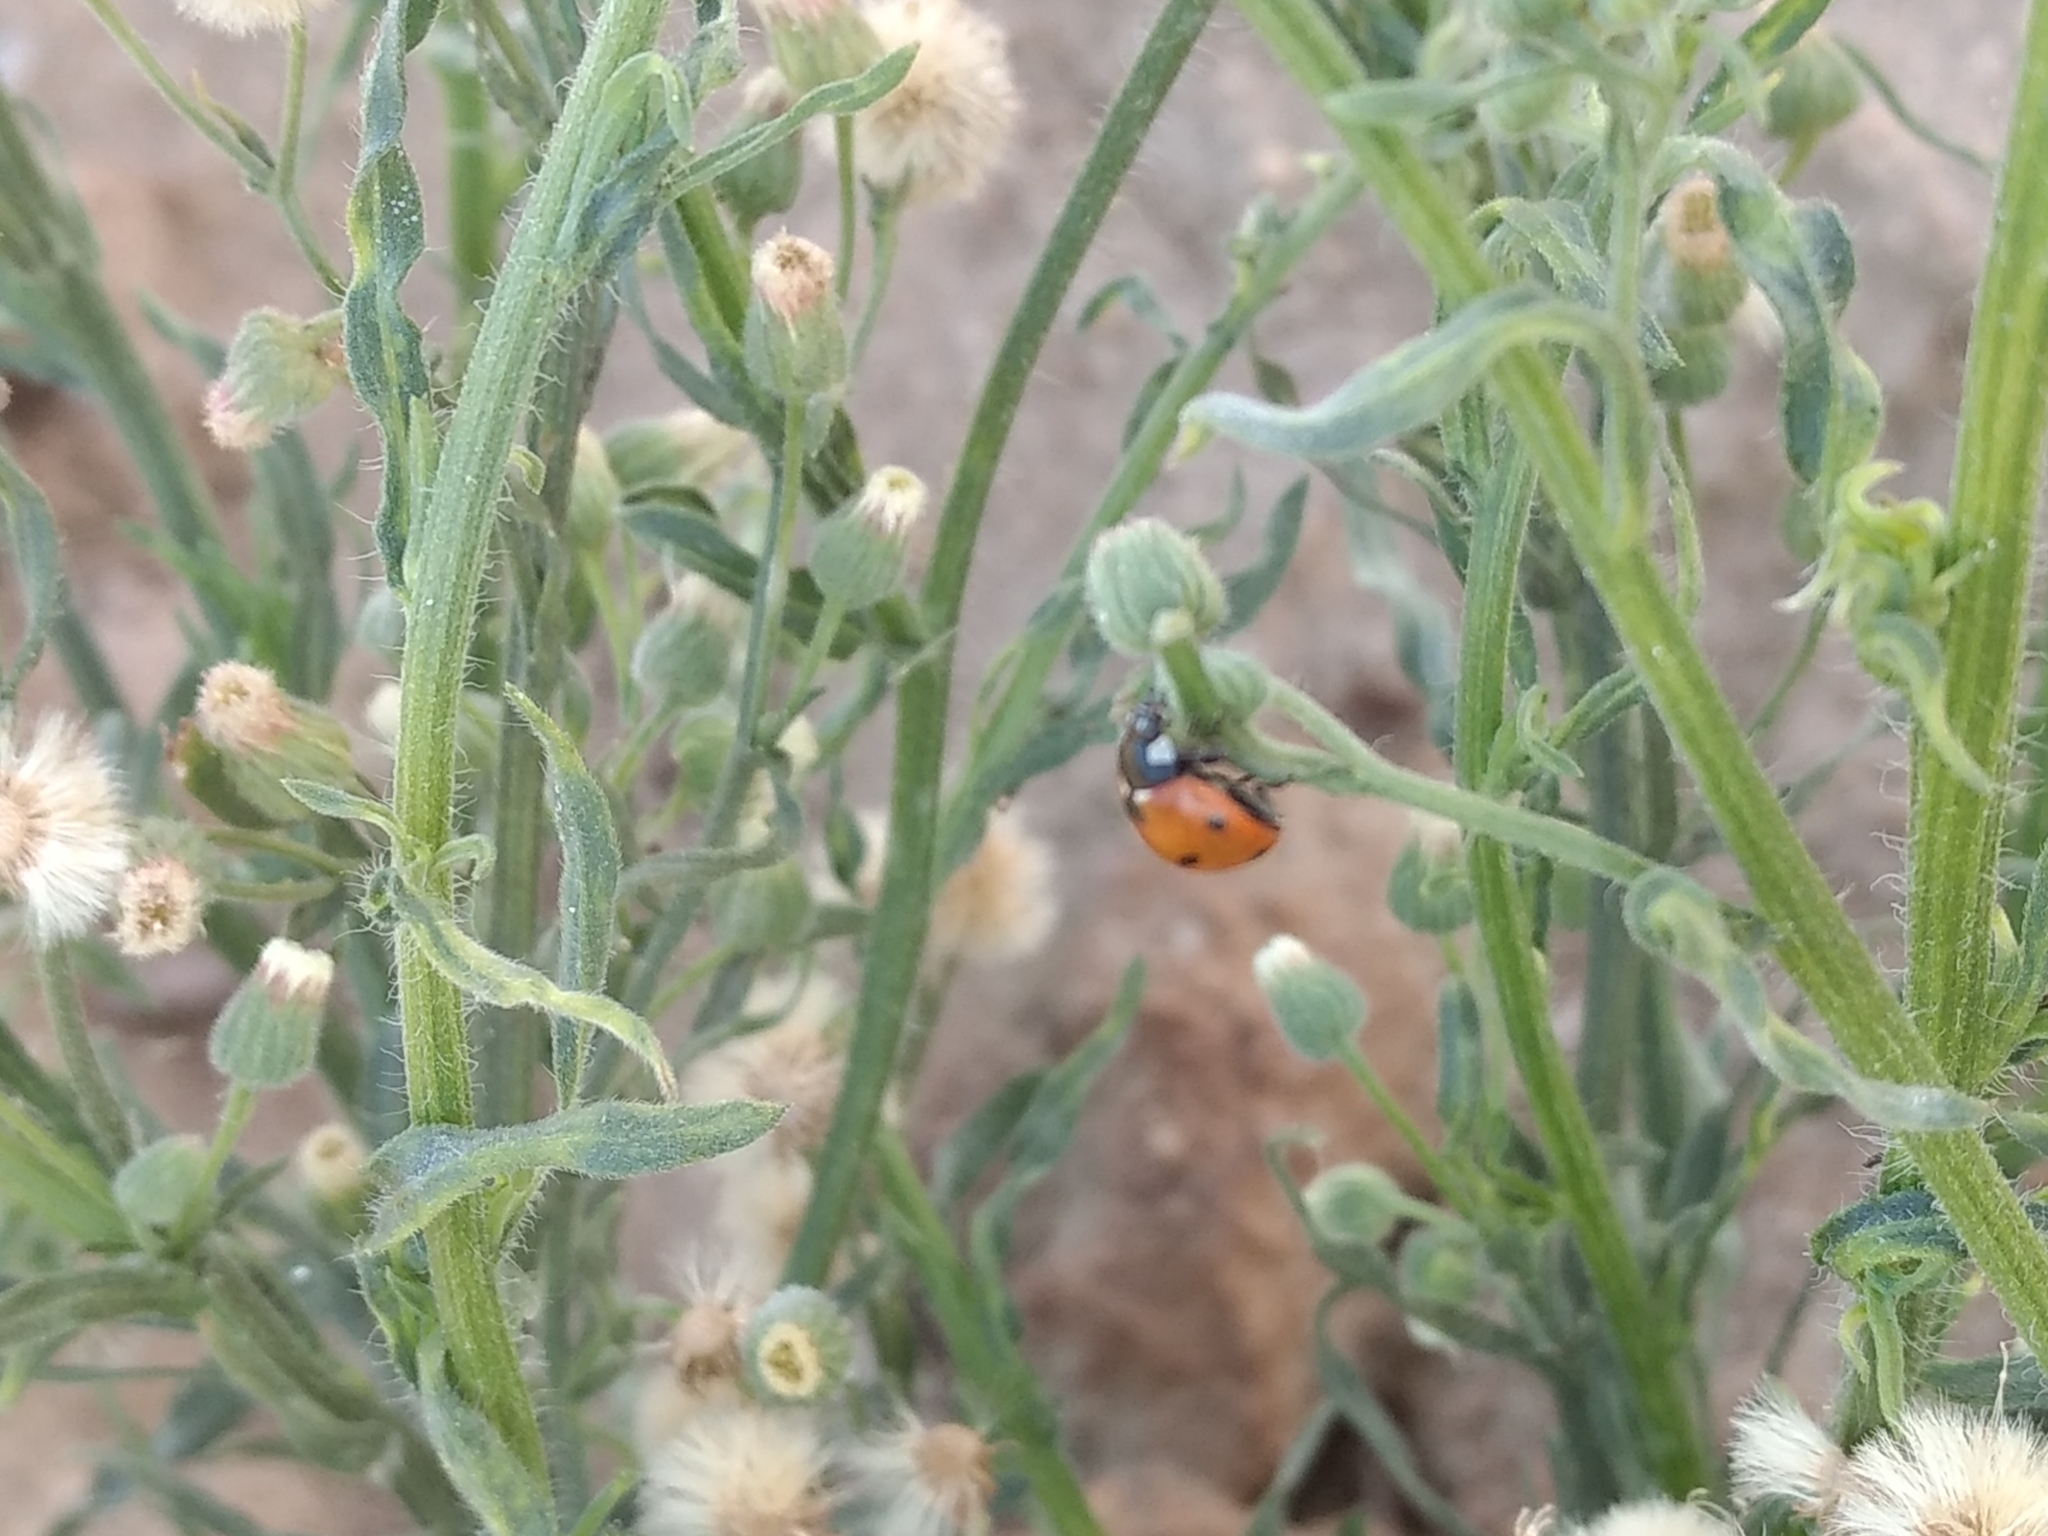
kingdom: Animalia
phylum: Arthropoda
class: Insecta
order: Coleoptera
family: Coccinellidae
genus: Coccinella
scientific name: Coccinella septempunctata
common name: Sevenspotted lady beetle
